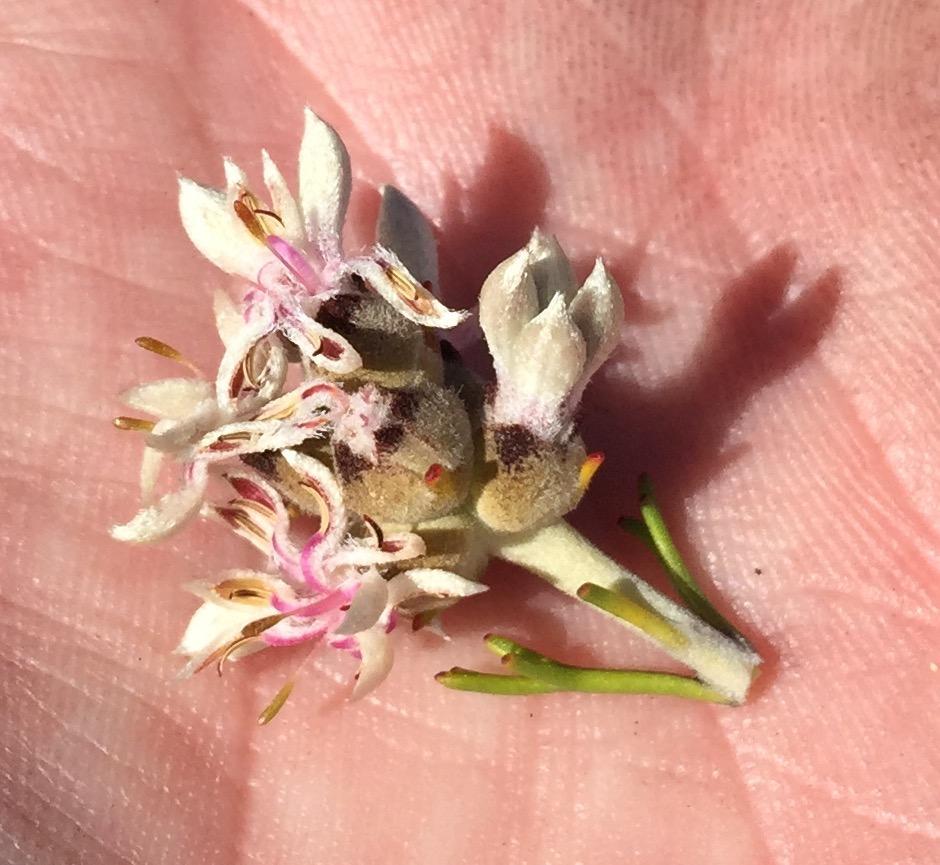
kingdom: Plantae
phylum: Tracheophyta
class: Magnoliopsida
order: Proteales
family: Proteaceae
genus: Paranomus
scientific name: Paranomus dregei
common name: Scented sceptre
